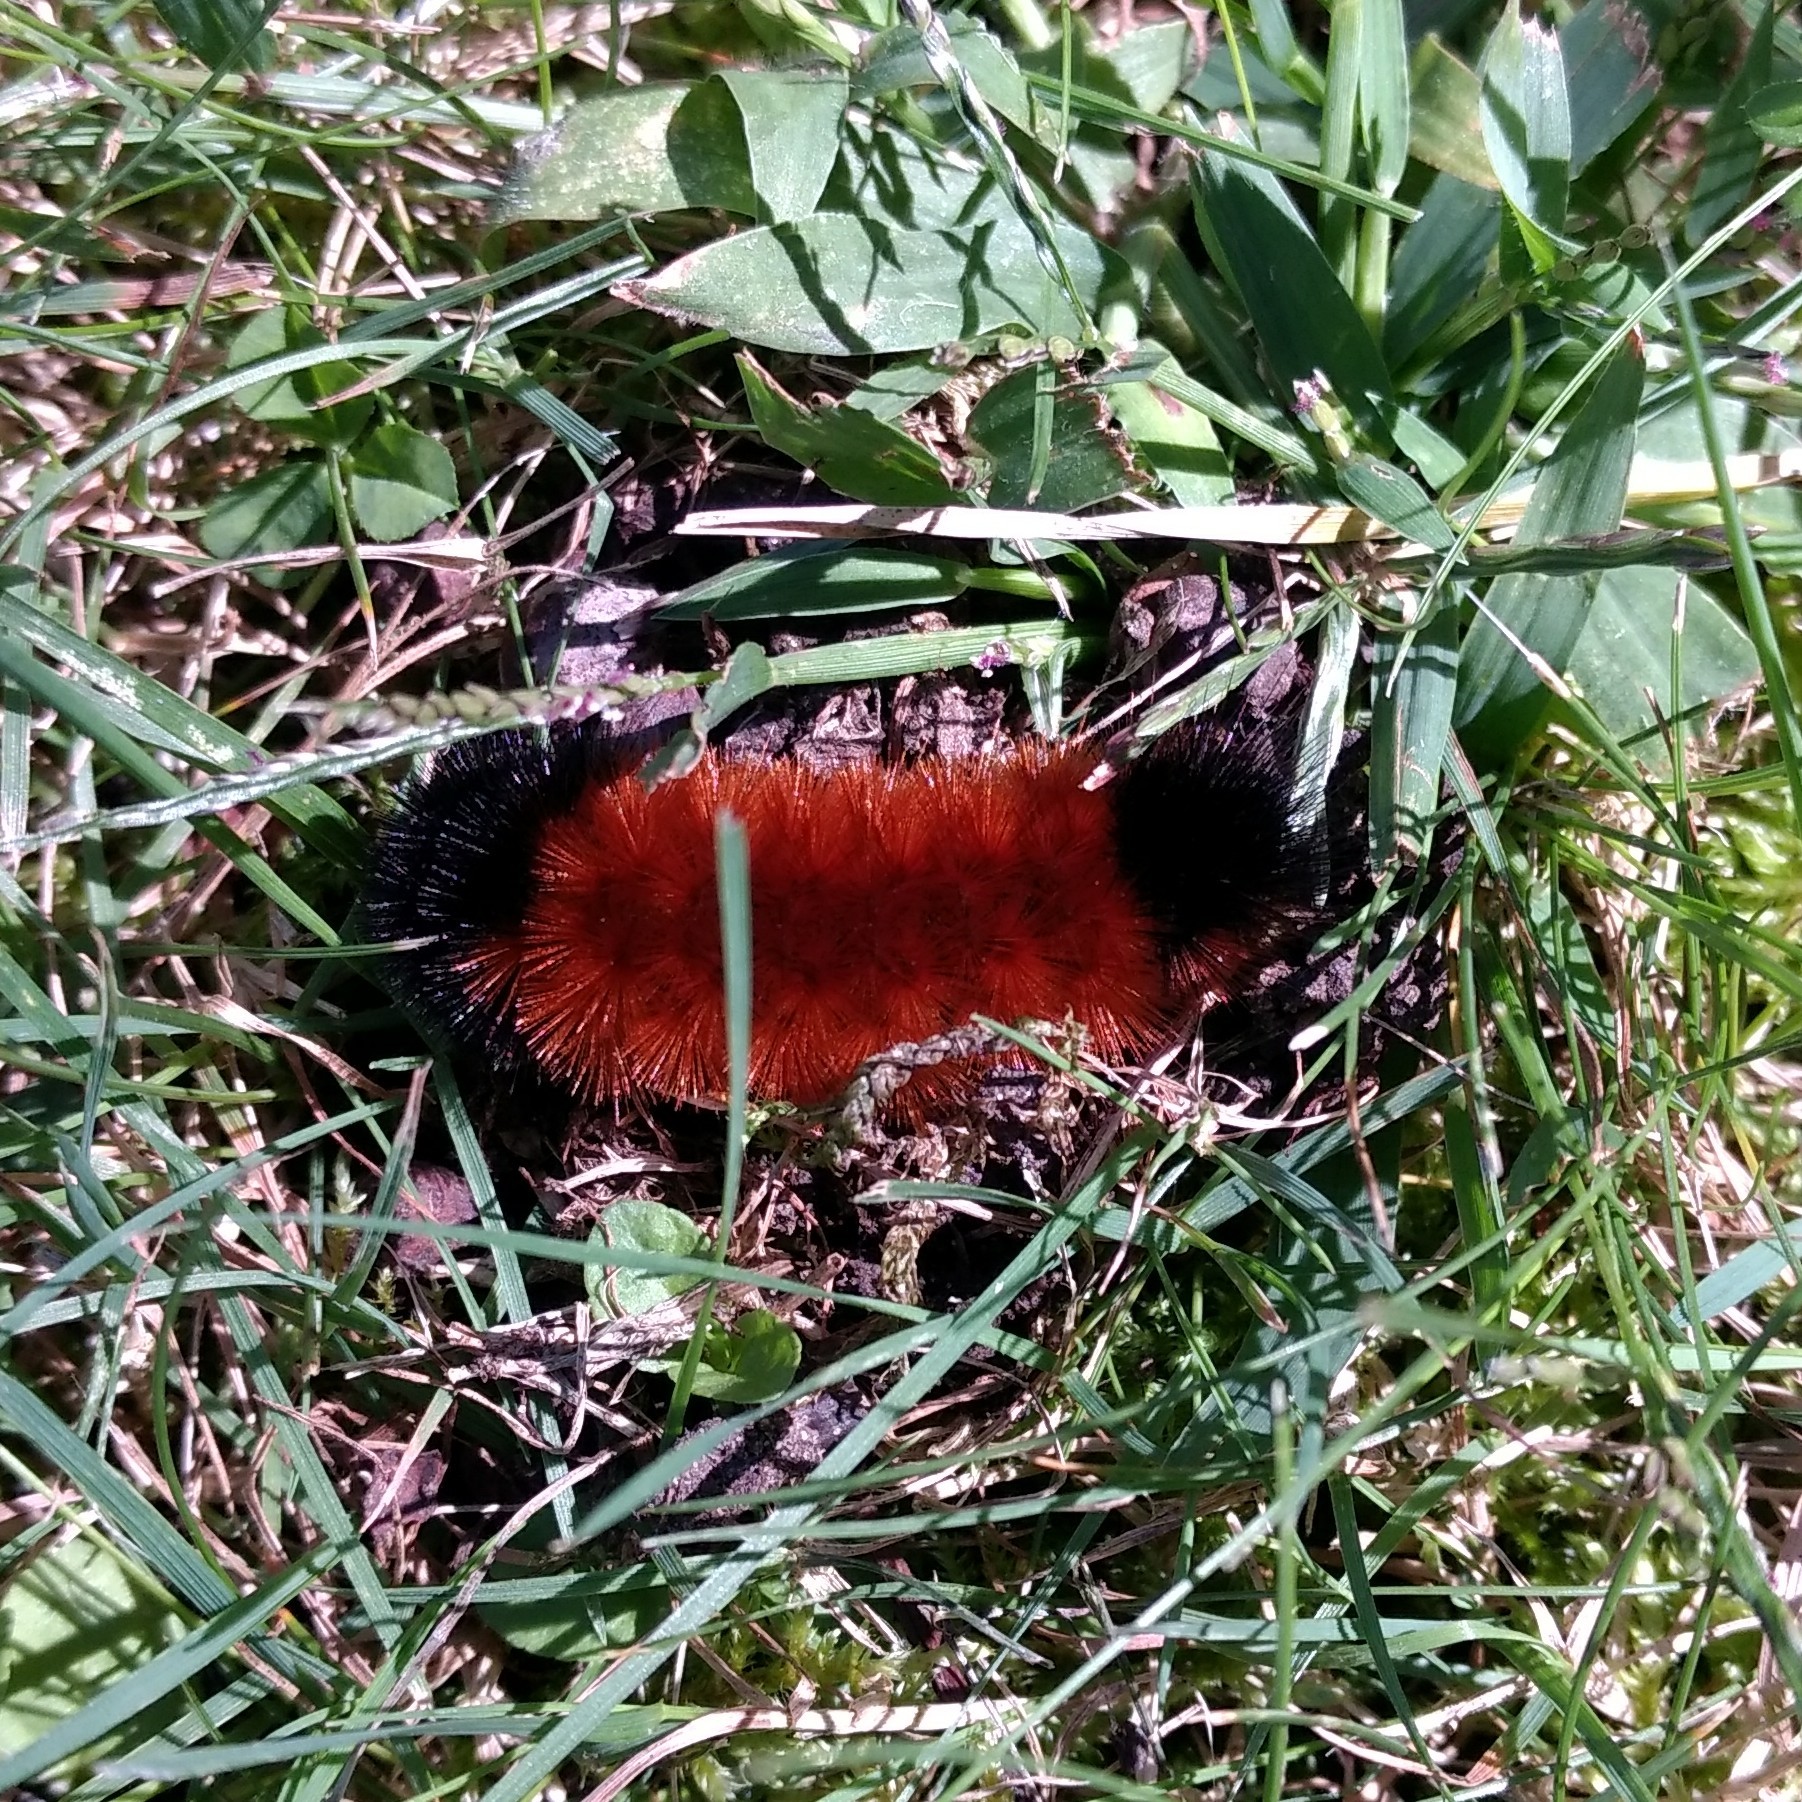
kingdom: Animalia
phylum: Arthropoda
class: Insecta
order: Lepidoptera
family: Erebidae
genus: Pyrrharctia
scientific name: Pyrrharctia isabella
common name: Isabella tiger moth
